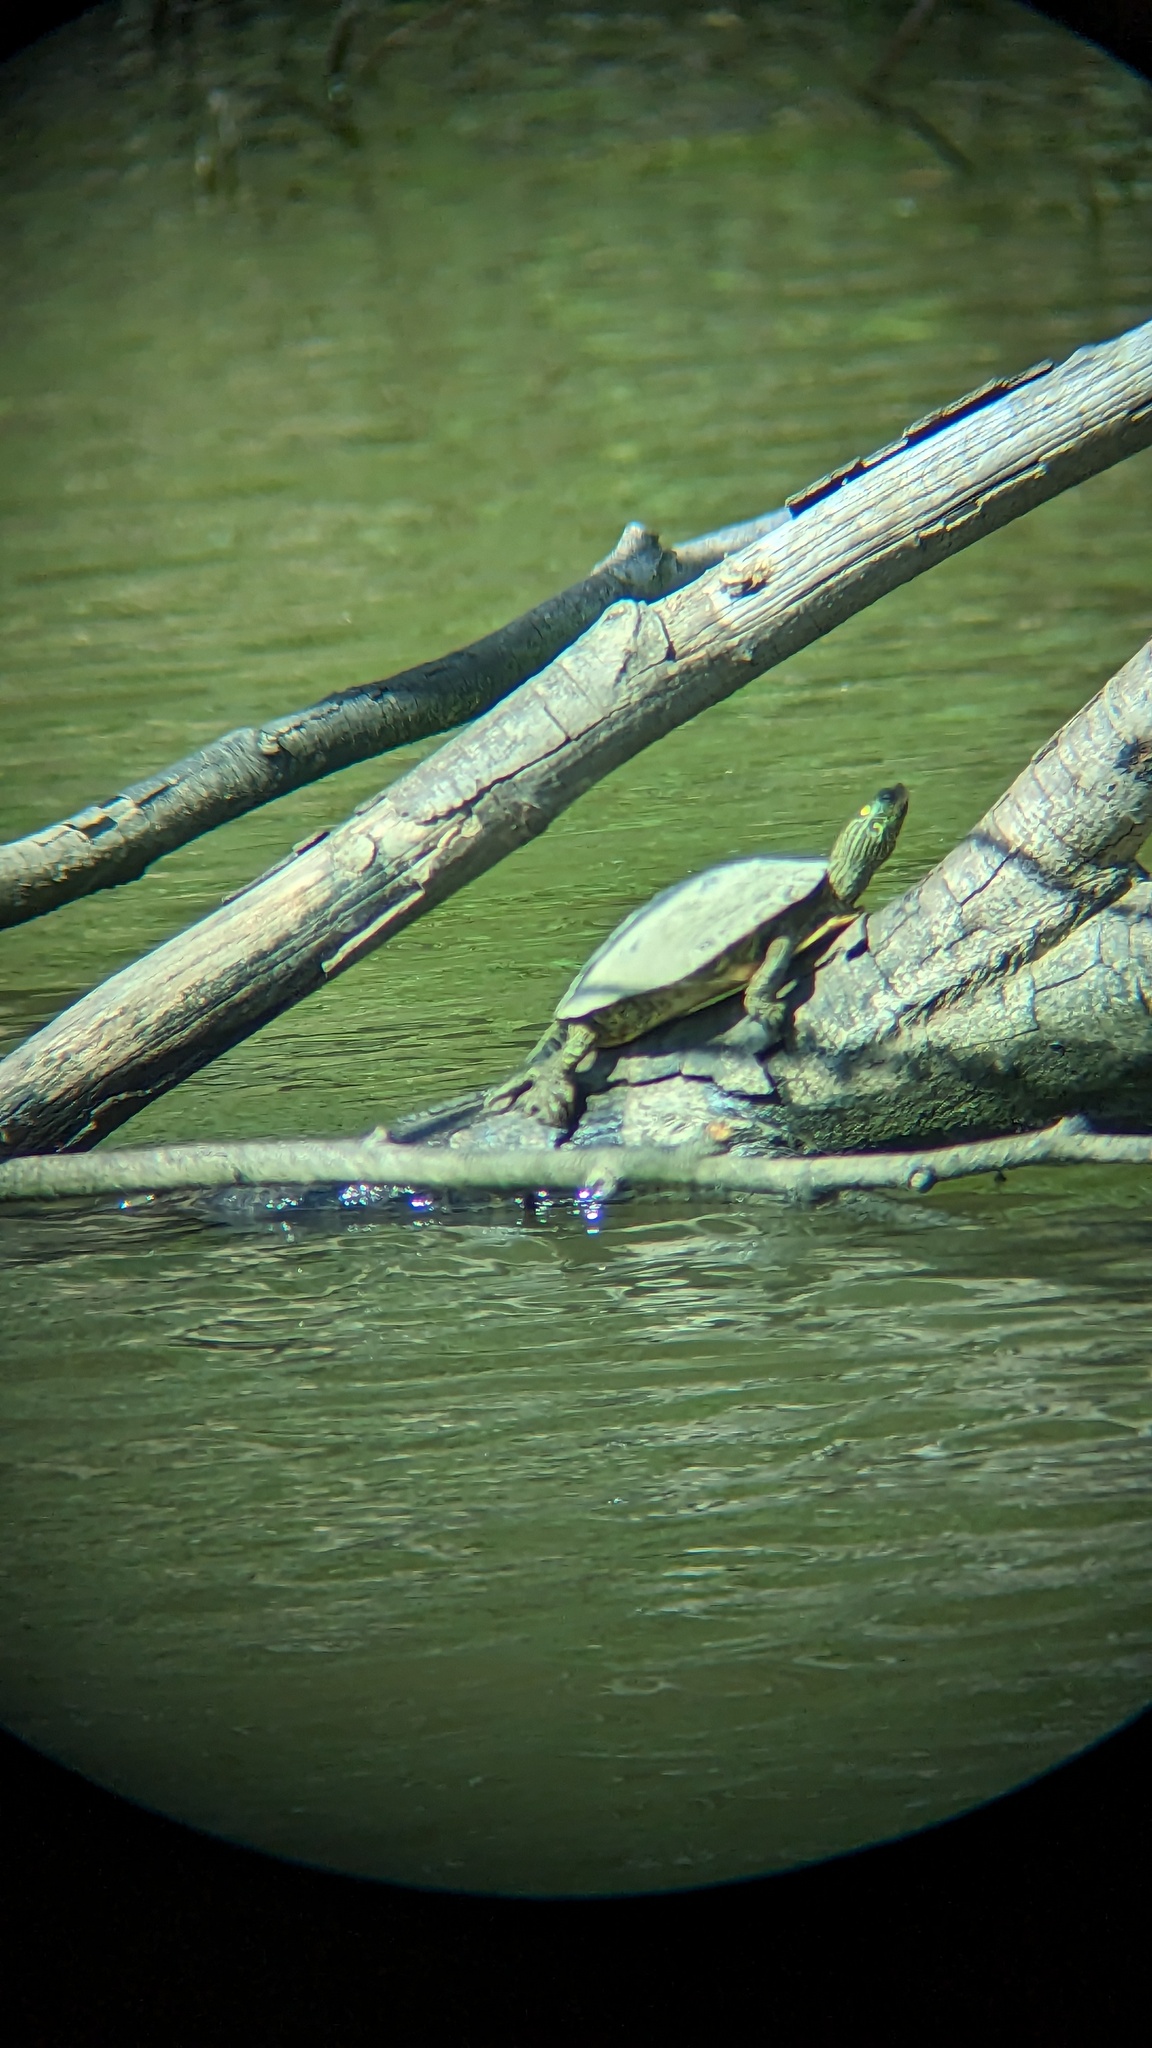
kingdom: Animalia
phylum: Chordata
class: Testudines
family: Emydidae
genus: Graptemys
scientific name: Graptemys geographica
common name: Common map turtle
